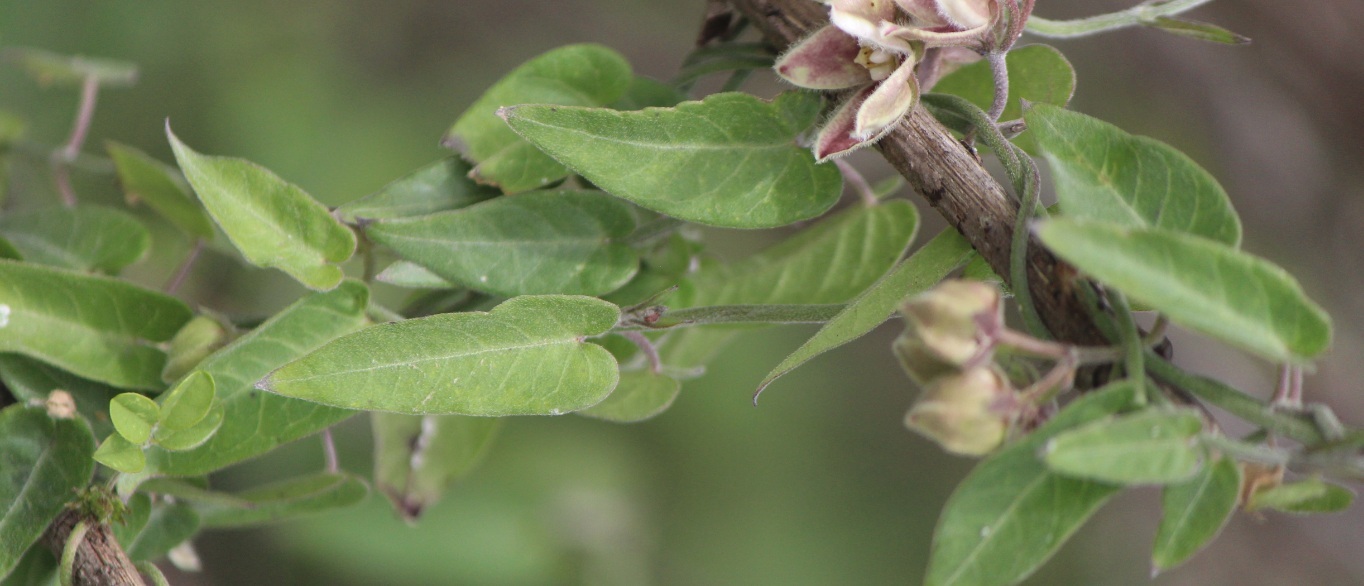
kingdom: Plantae
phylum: Tracheophyta
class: Magnoliopsida
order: Gentianales
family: Apocynaceae
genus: Funastrum
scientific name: Funastrum elegans
